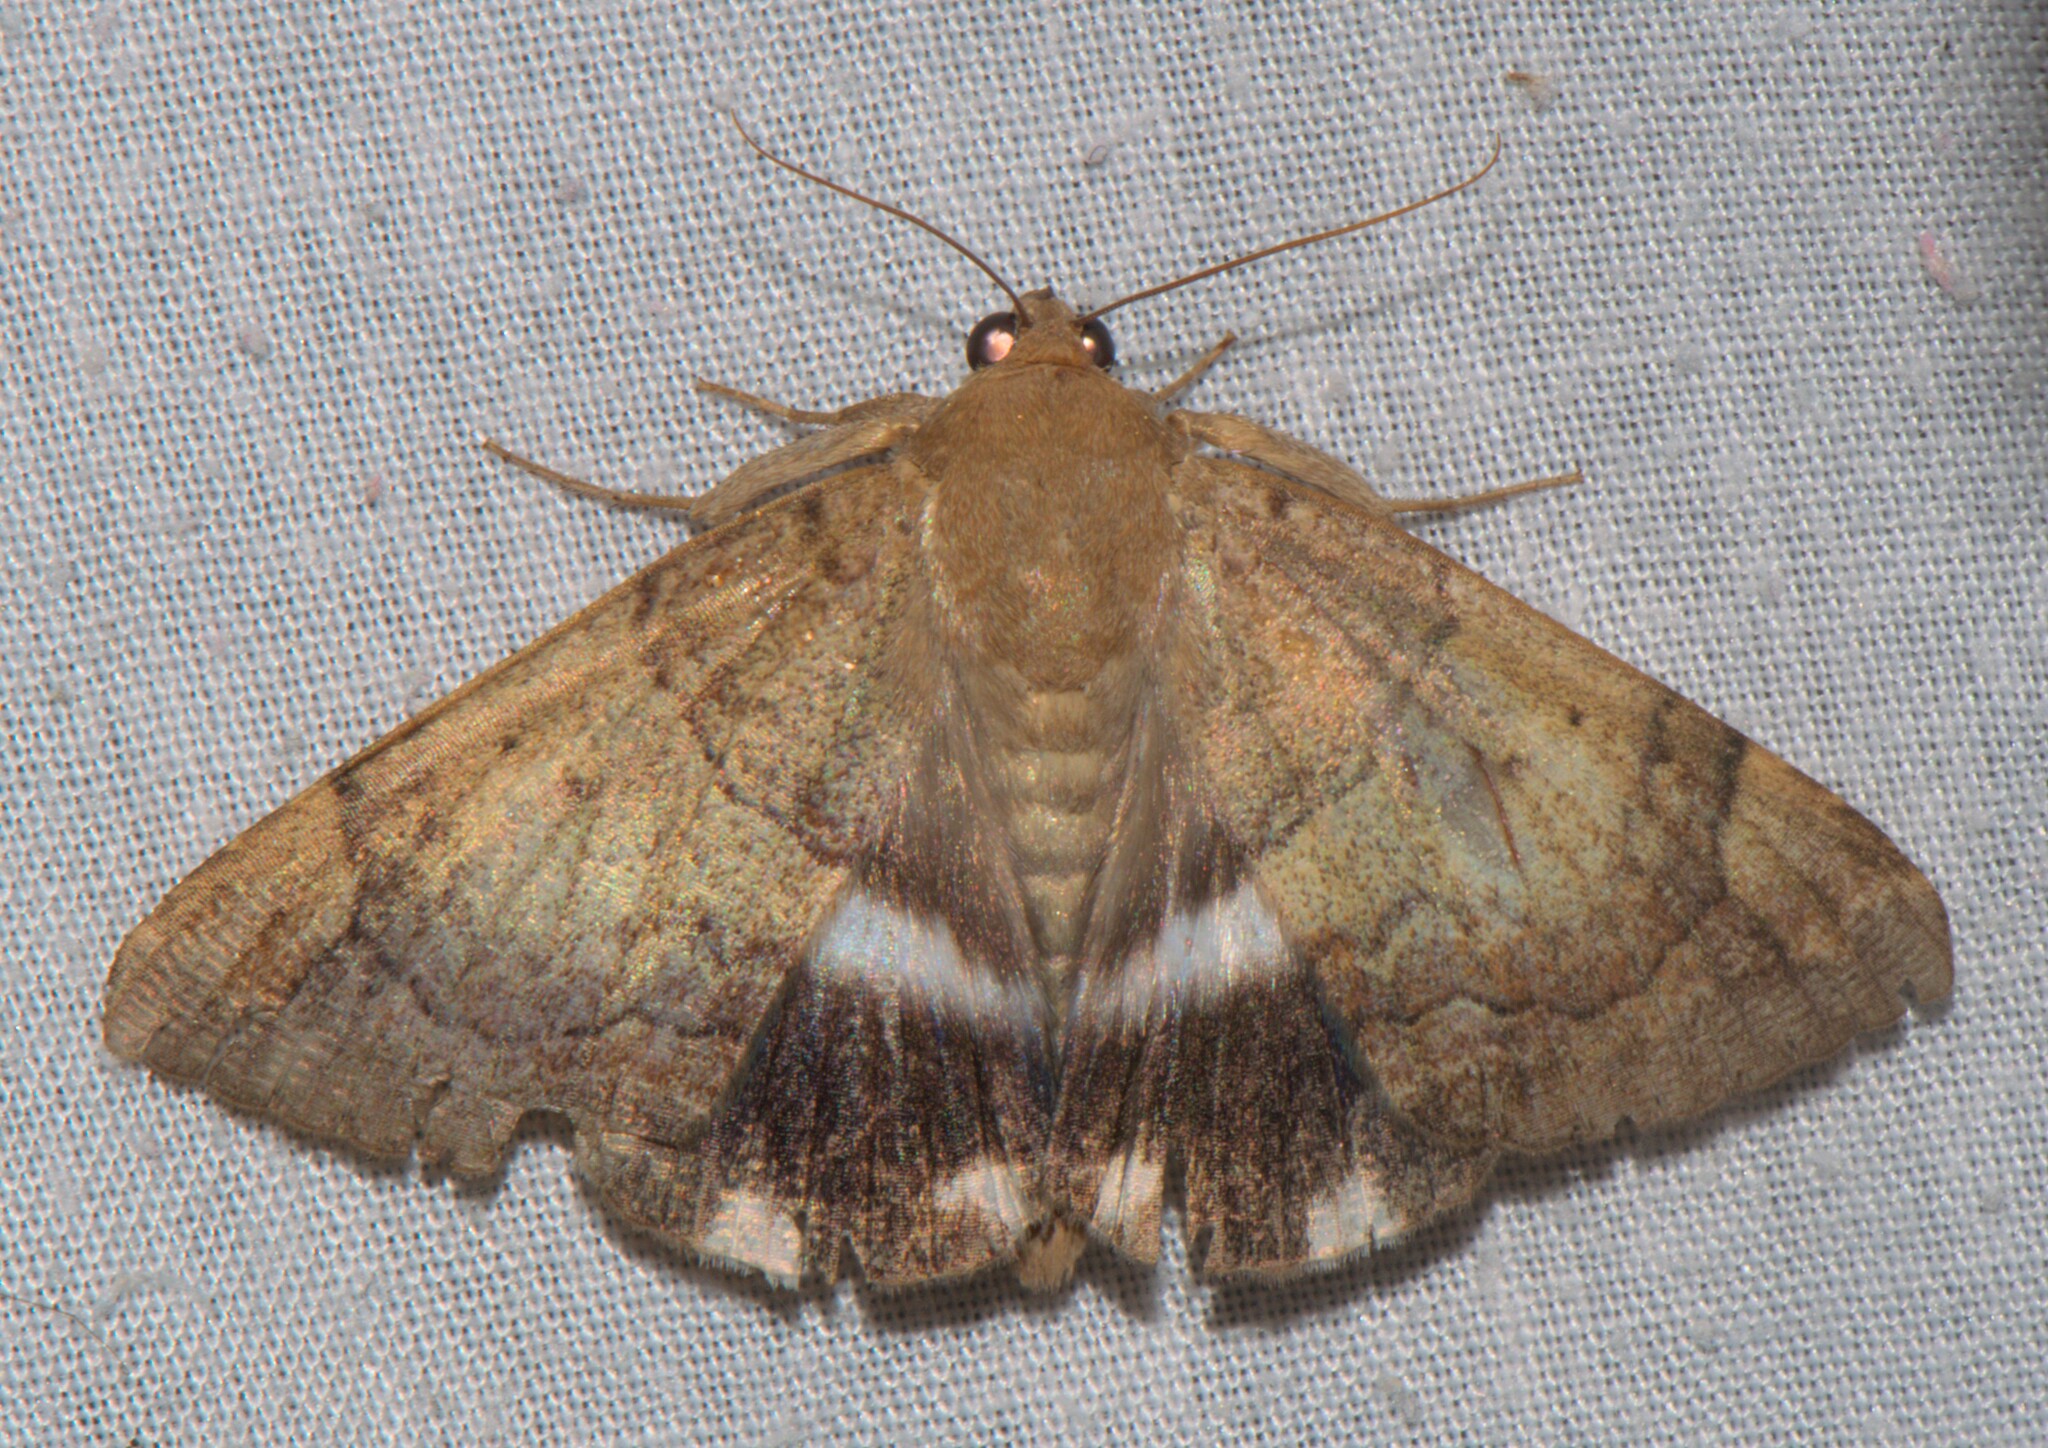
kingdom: Animalia
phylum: Arthropoda
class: Insecta
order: Lepidoptera
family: Erebidae
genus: Achaea
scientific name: Achaea janata
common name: Croton caterpillar
